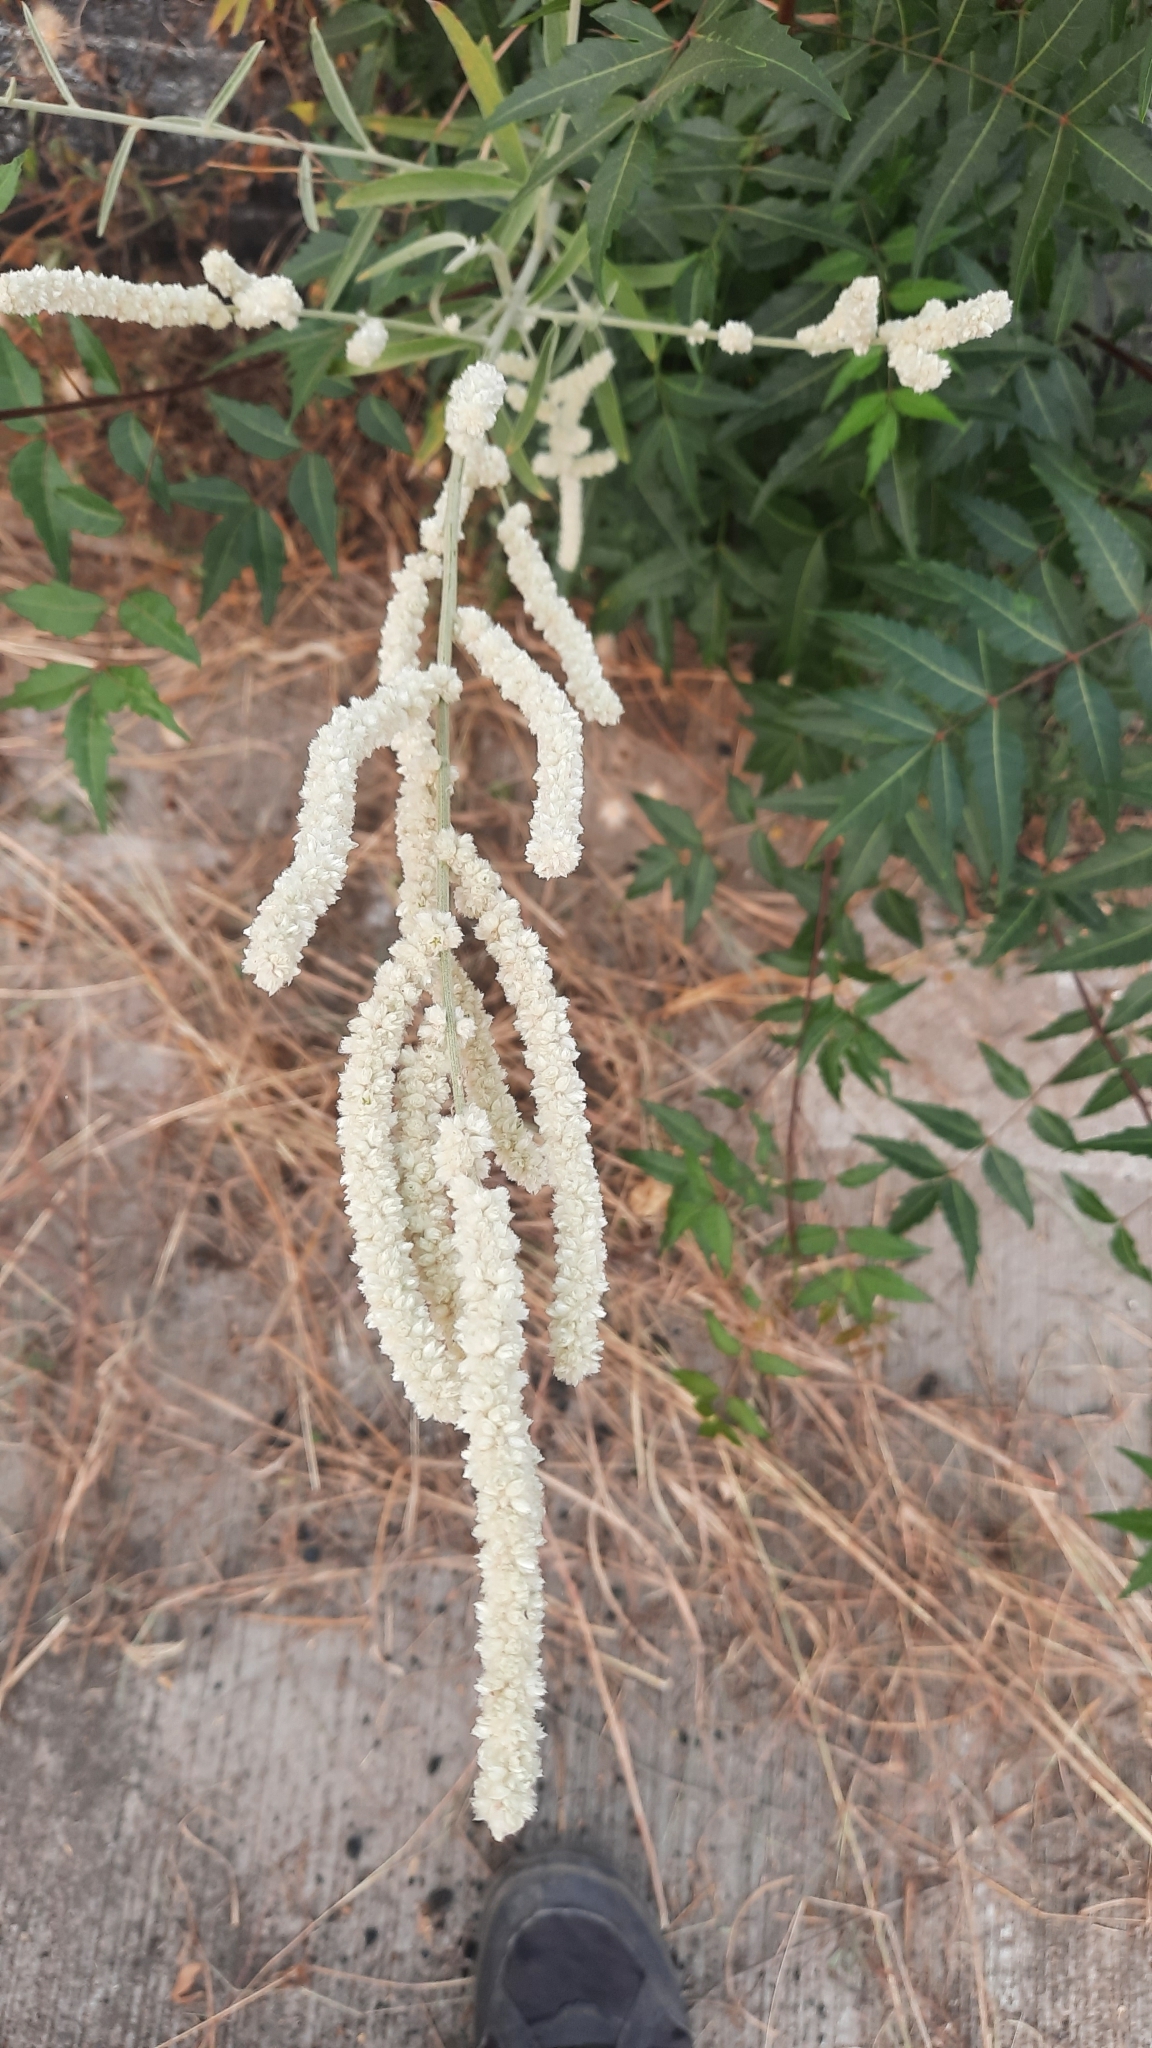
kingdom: Plantae
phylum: Tracheophyta
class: Magnoliopsida
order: Caryophyllales
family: Amaranthaceae
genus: Aerva
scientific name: Aerva javanica
